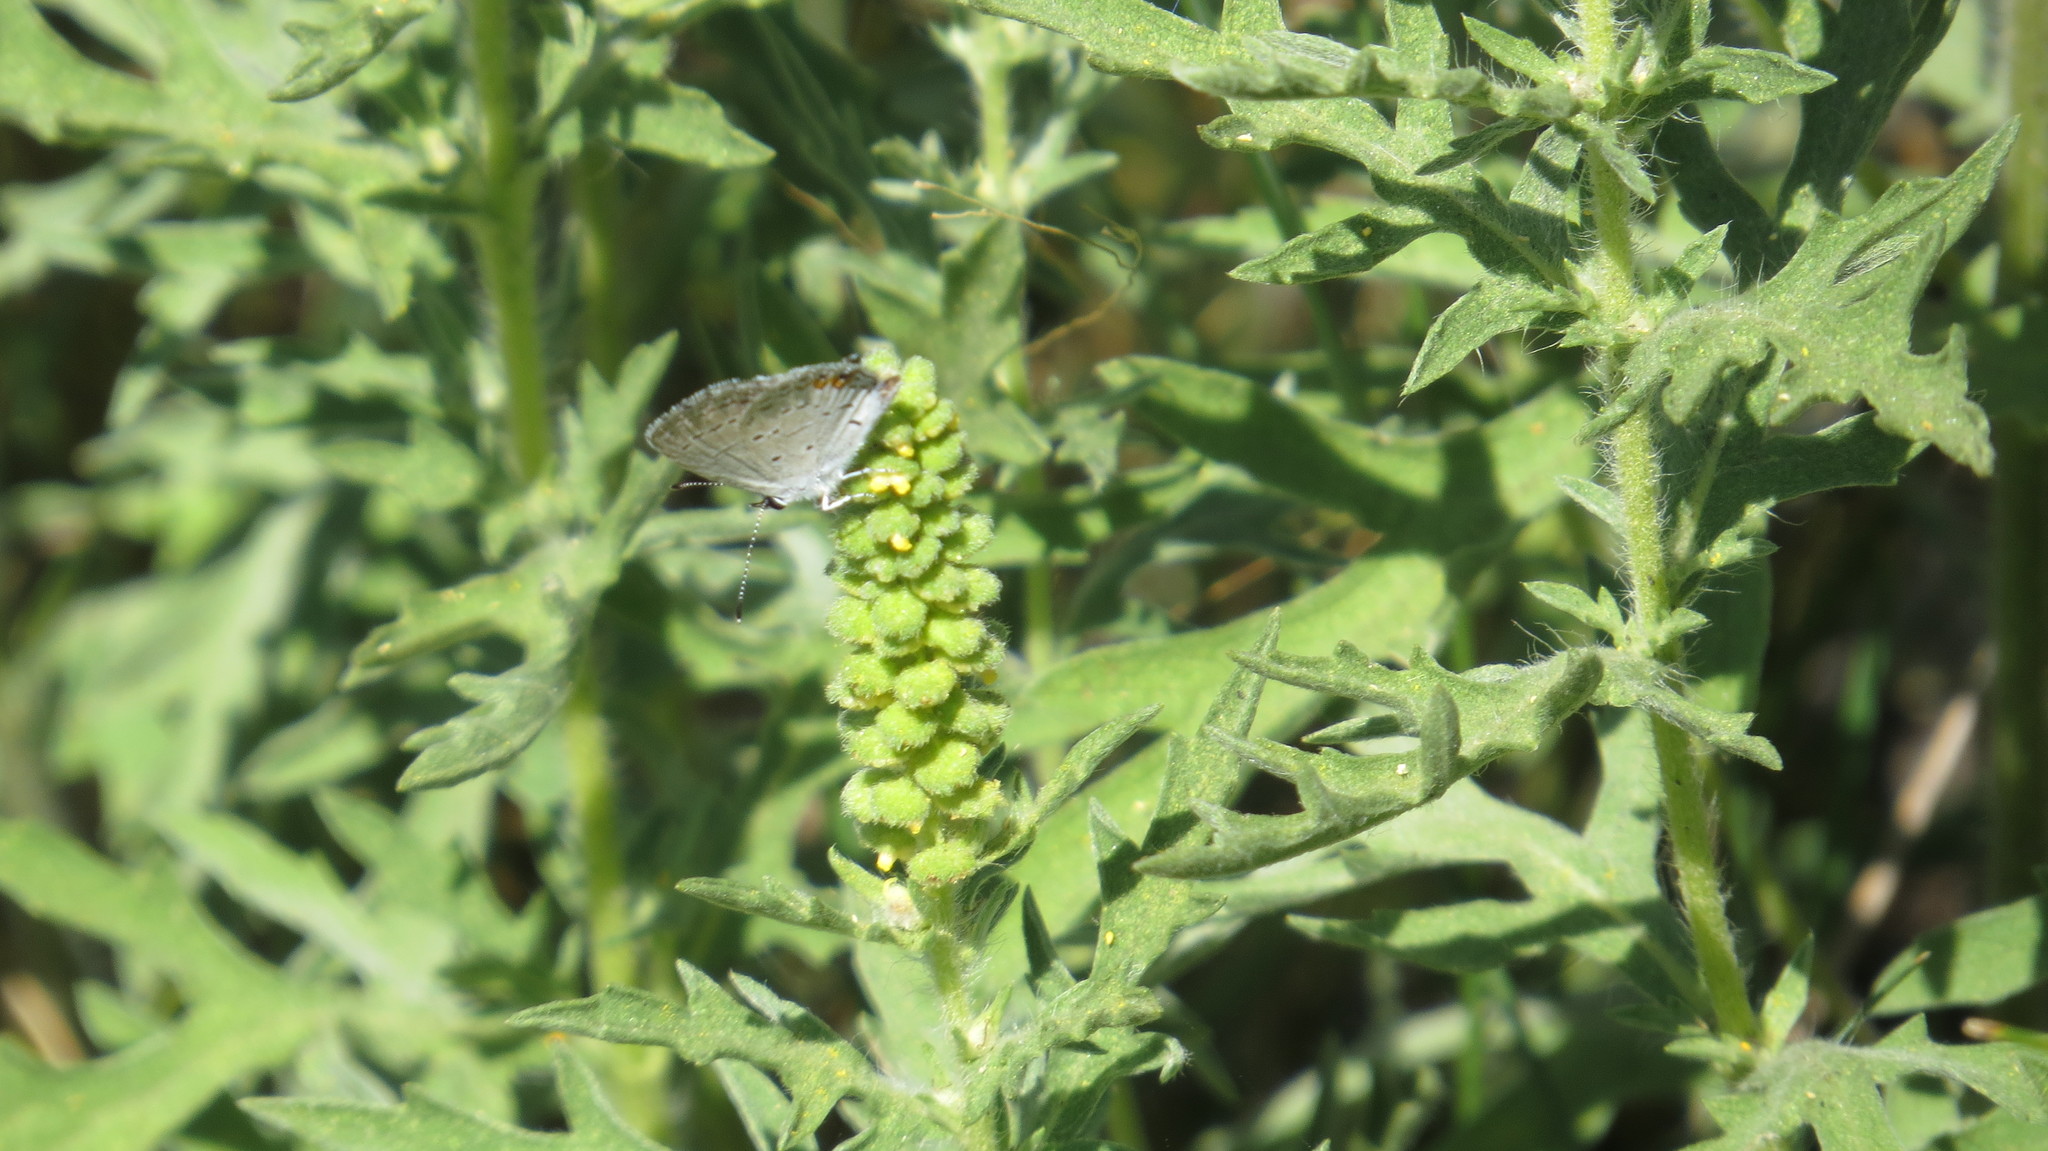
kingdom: Plantae
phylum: Tracheophyta
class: Magnoliopsida
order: Asterales
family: Asteraceae
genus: Ambrosia
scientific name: Ambrosia psilostachya
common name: Perennial ragweed
